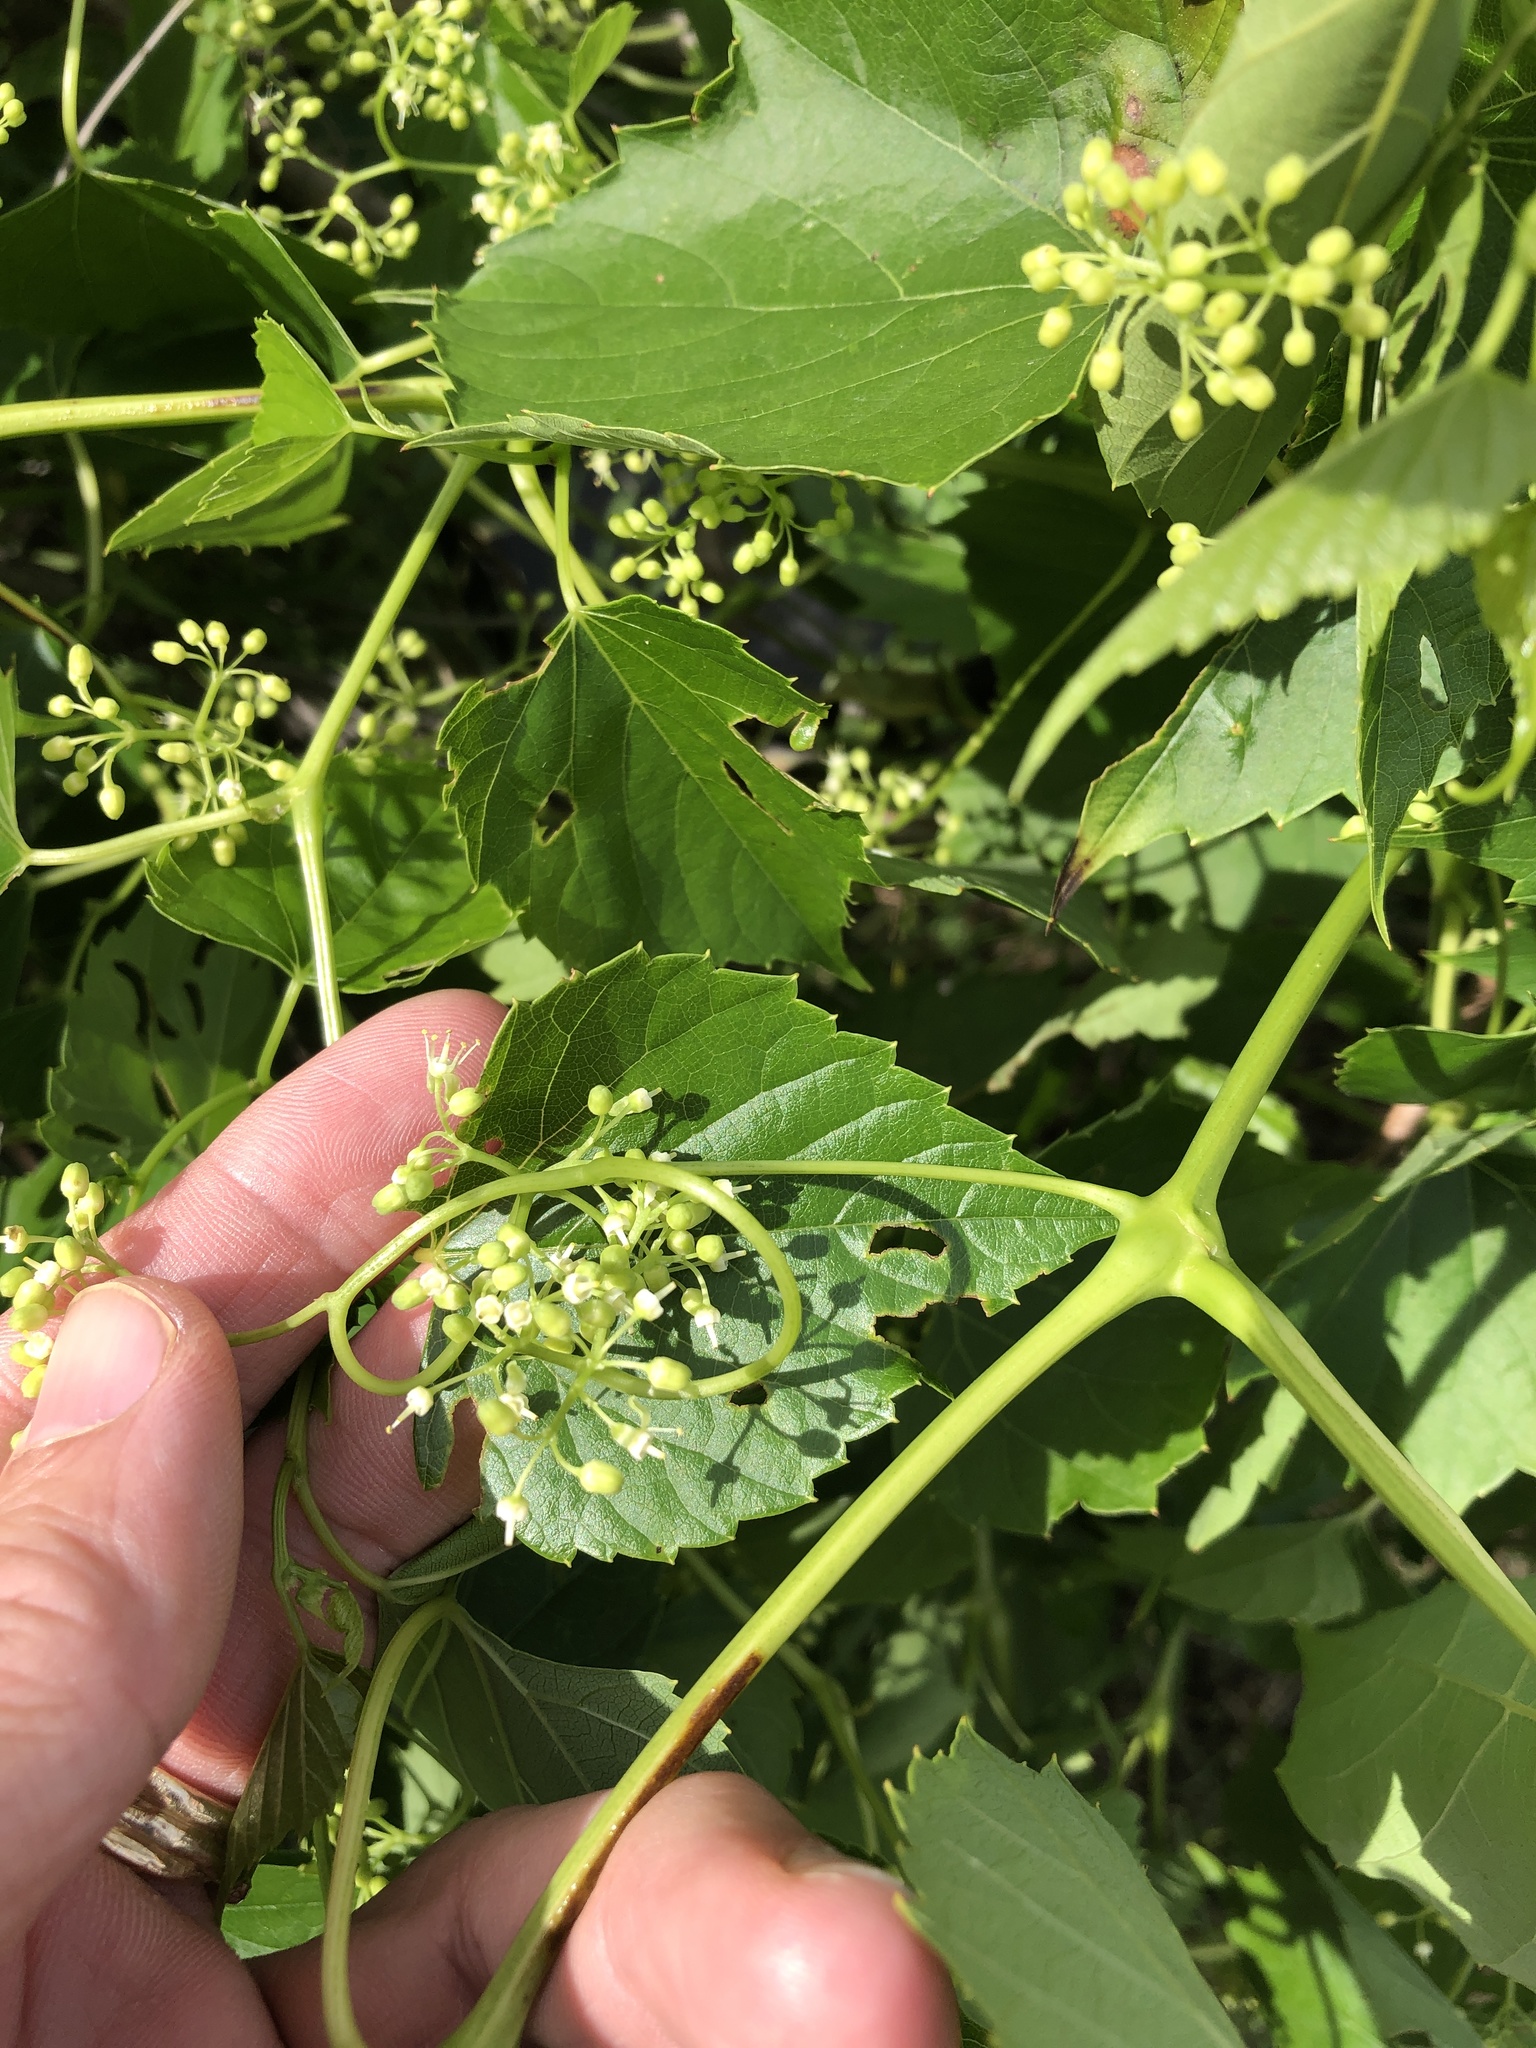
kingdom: Plantae
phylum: Tracheophyta
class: Magnoliopsida
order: Vitales
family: Vitaceae
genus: Ampelopsis
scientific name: Ampelopsis cordata
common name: Heart-leaf ampelopsis
